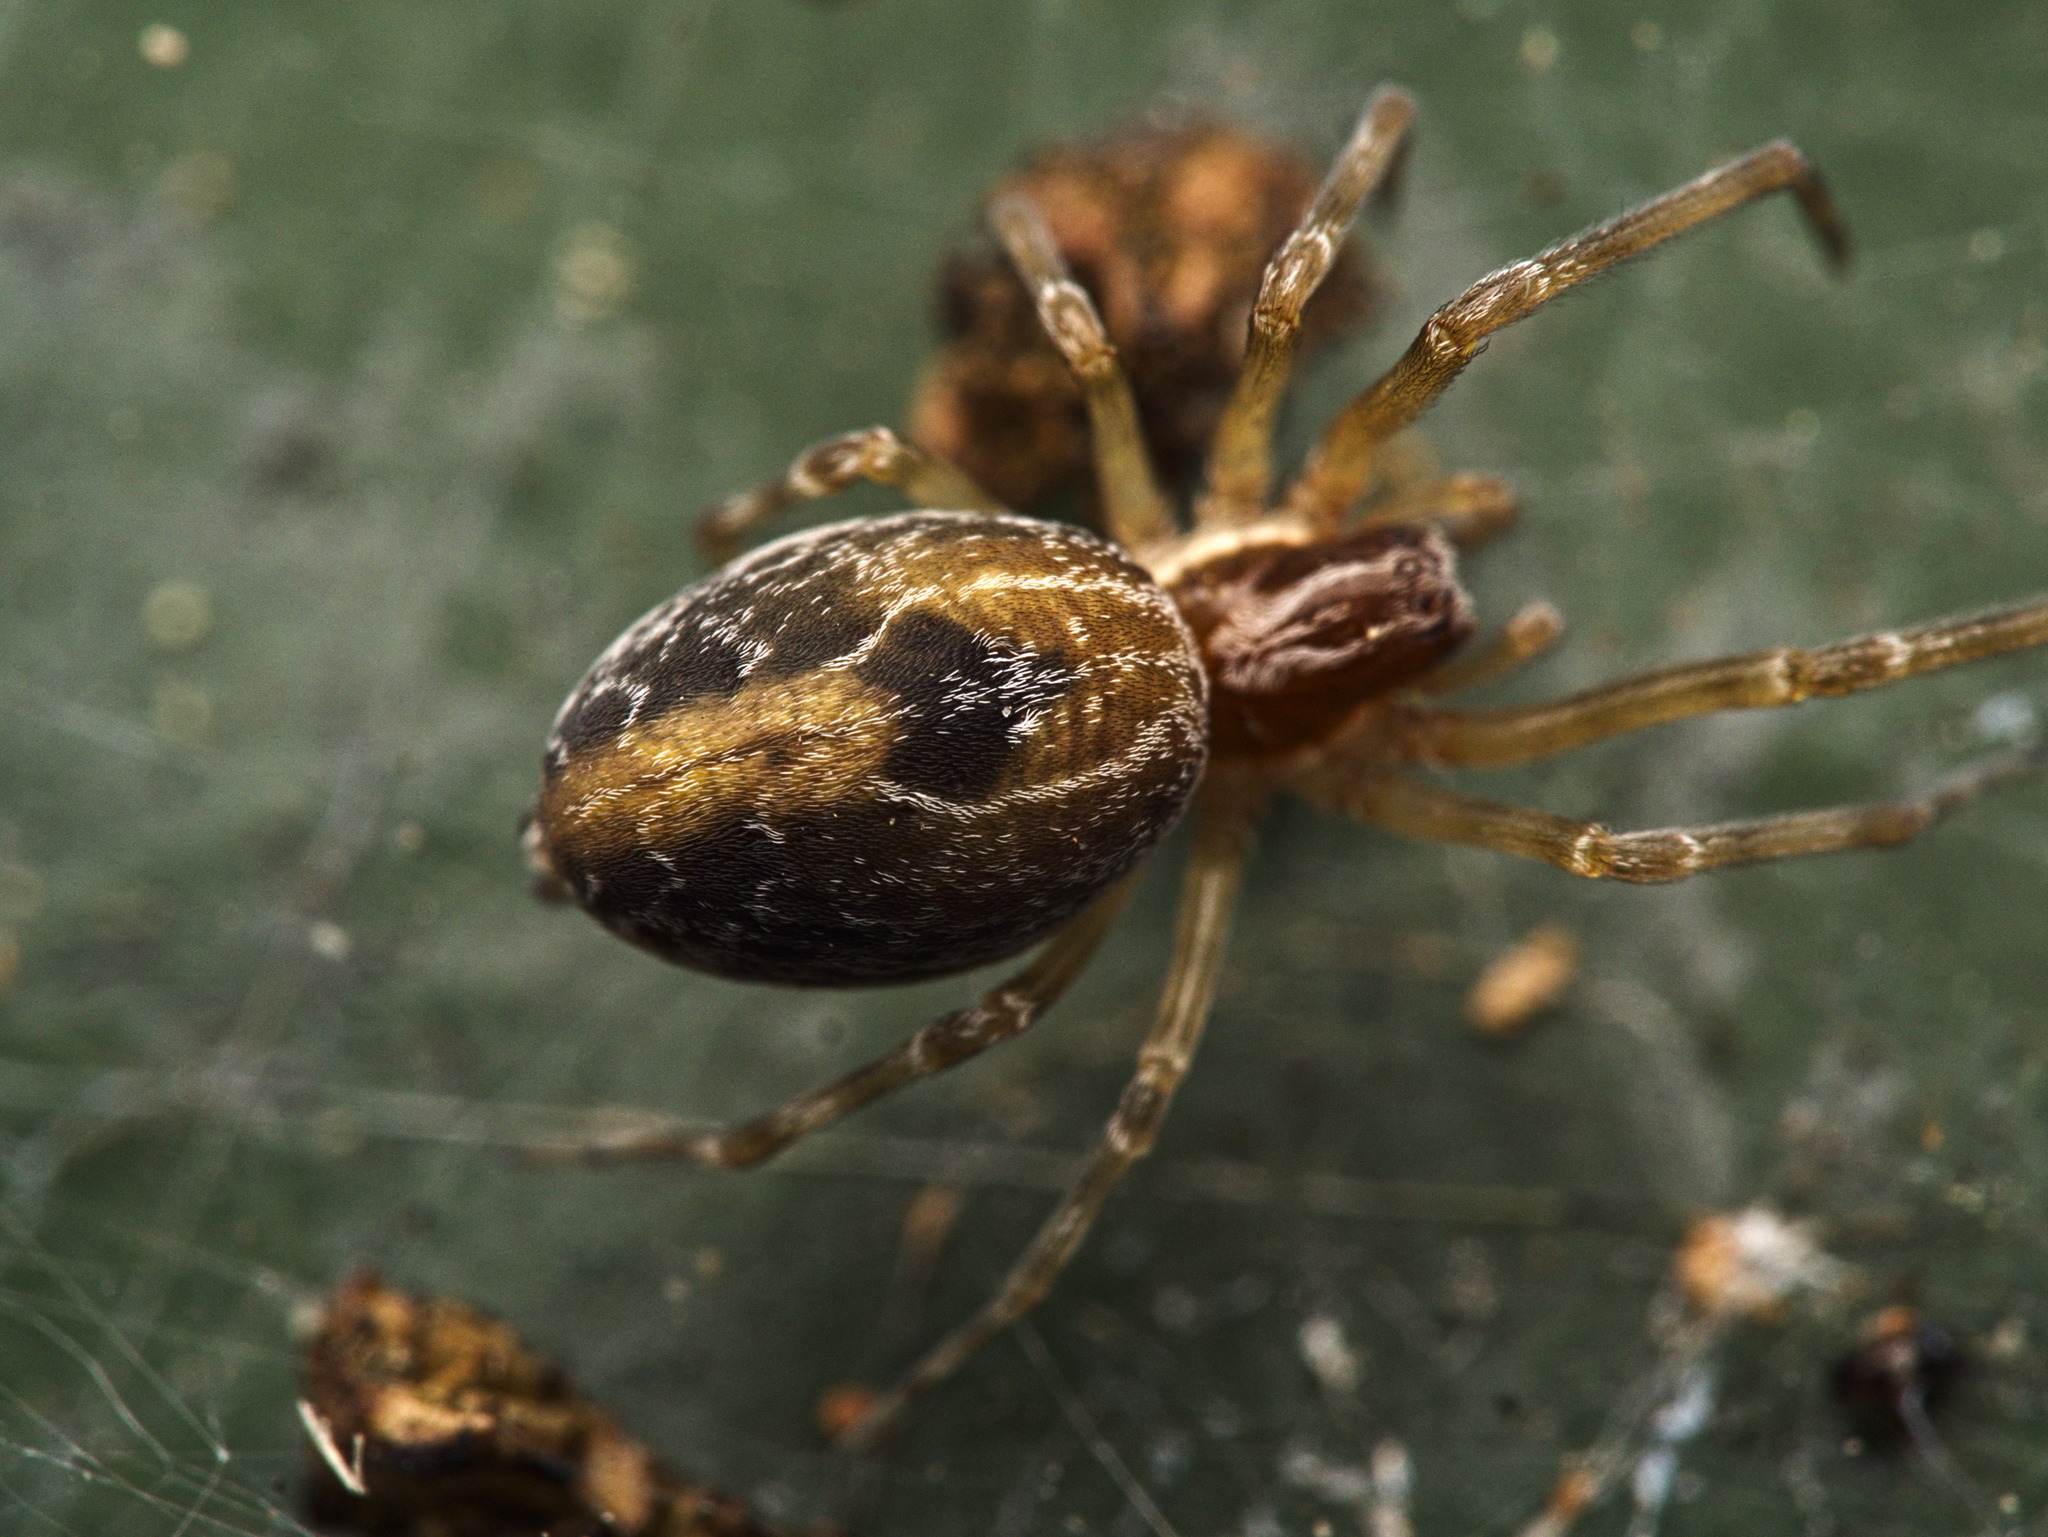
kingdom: Animalia
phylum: Arthropoda
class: Arachnida
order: Araneae
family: Dictynidae
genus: Mallos
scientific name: Mallos
